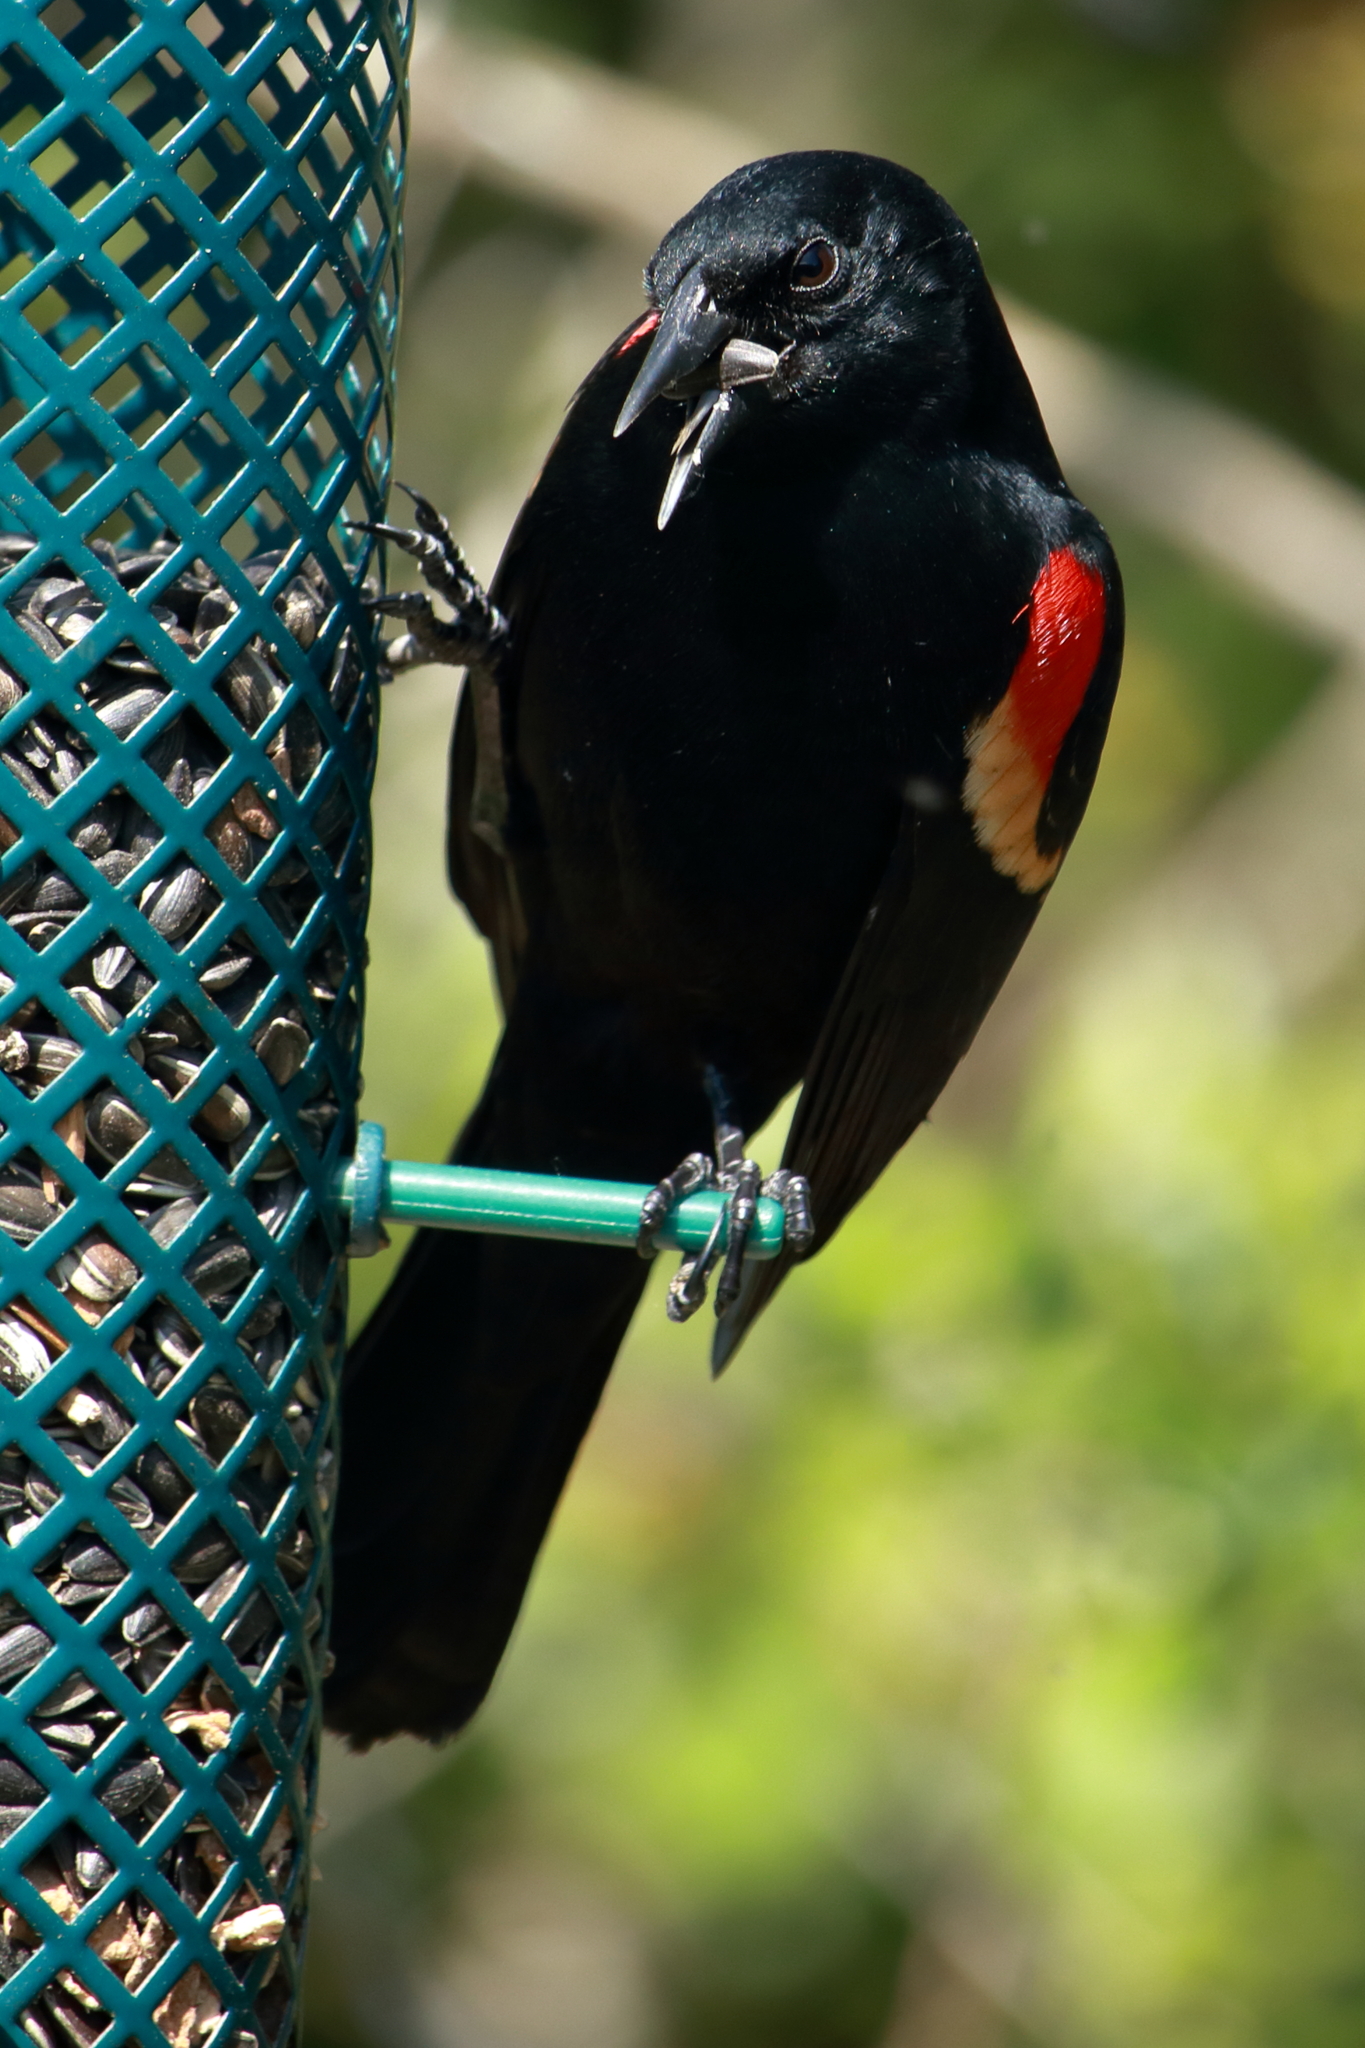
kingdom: Animalia
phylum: Chordata
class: Aves
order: Passeriformes
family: Icteridae
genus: Agelaius
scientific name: Agelaius phoeniceus
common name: Red-winged blackbird
